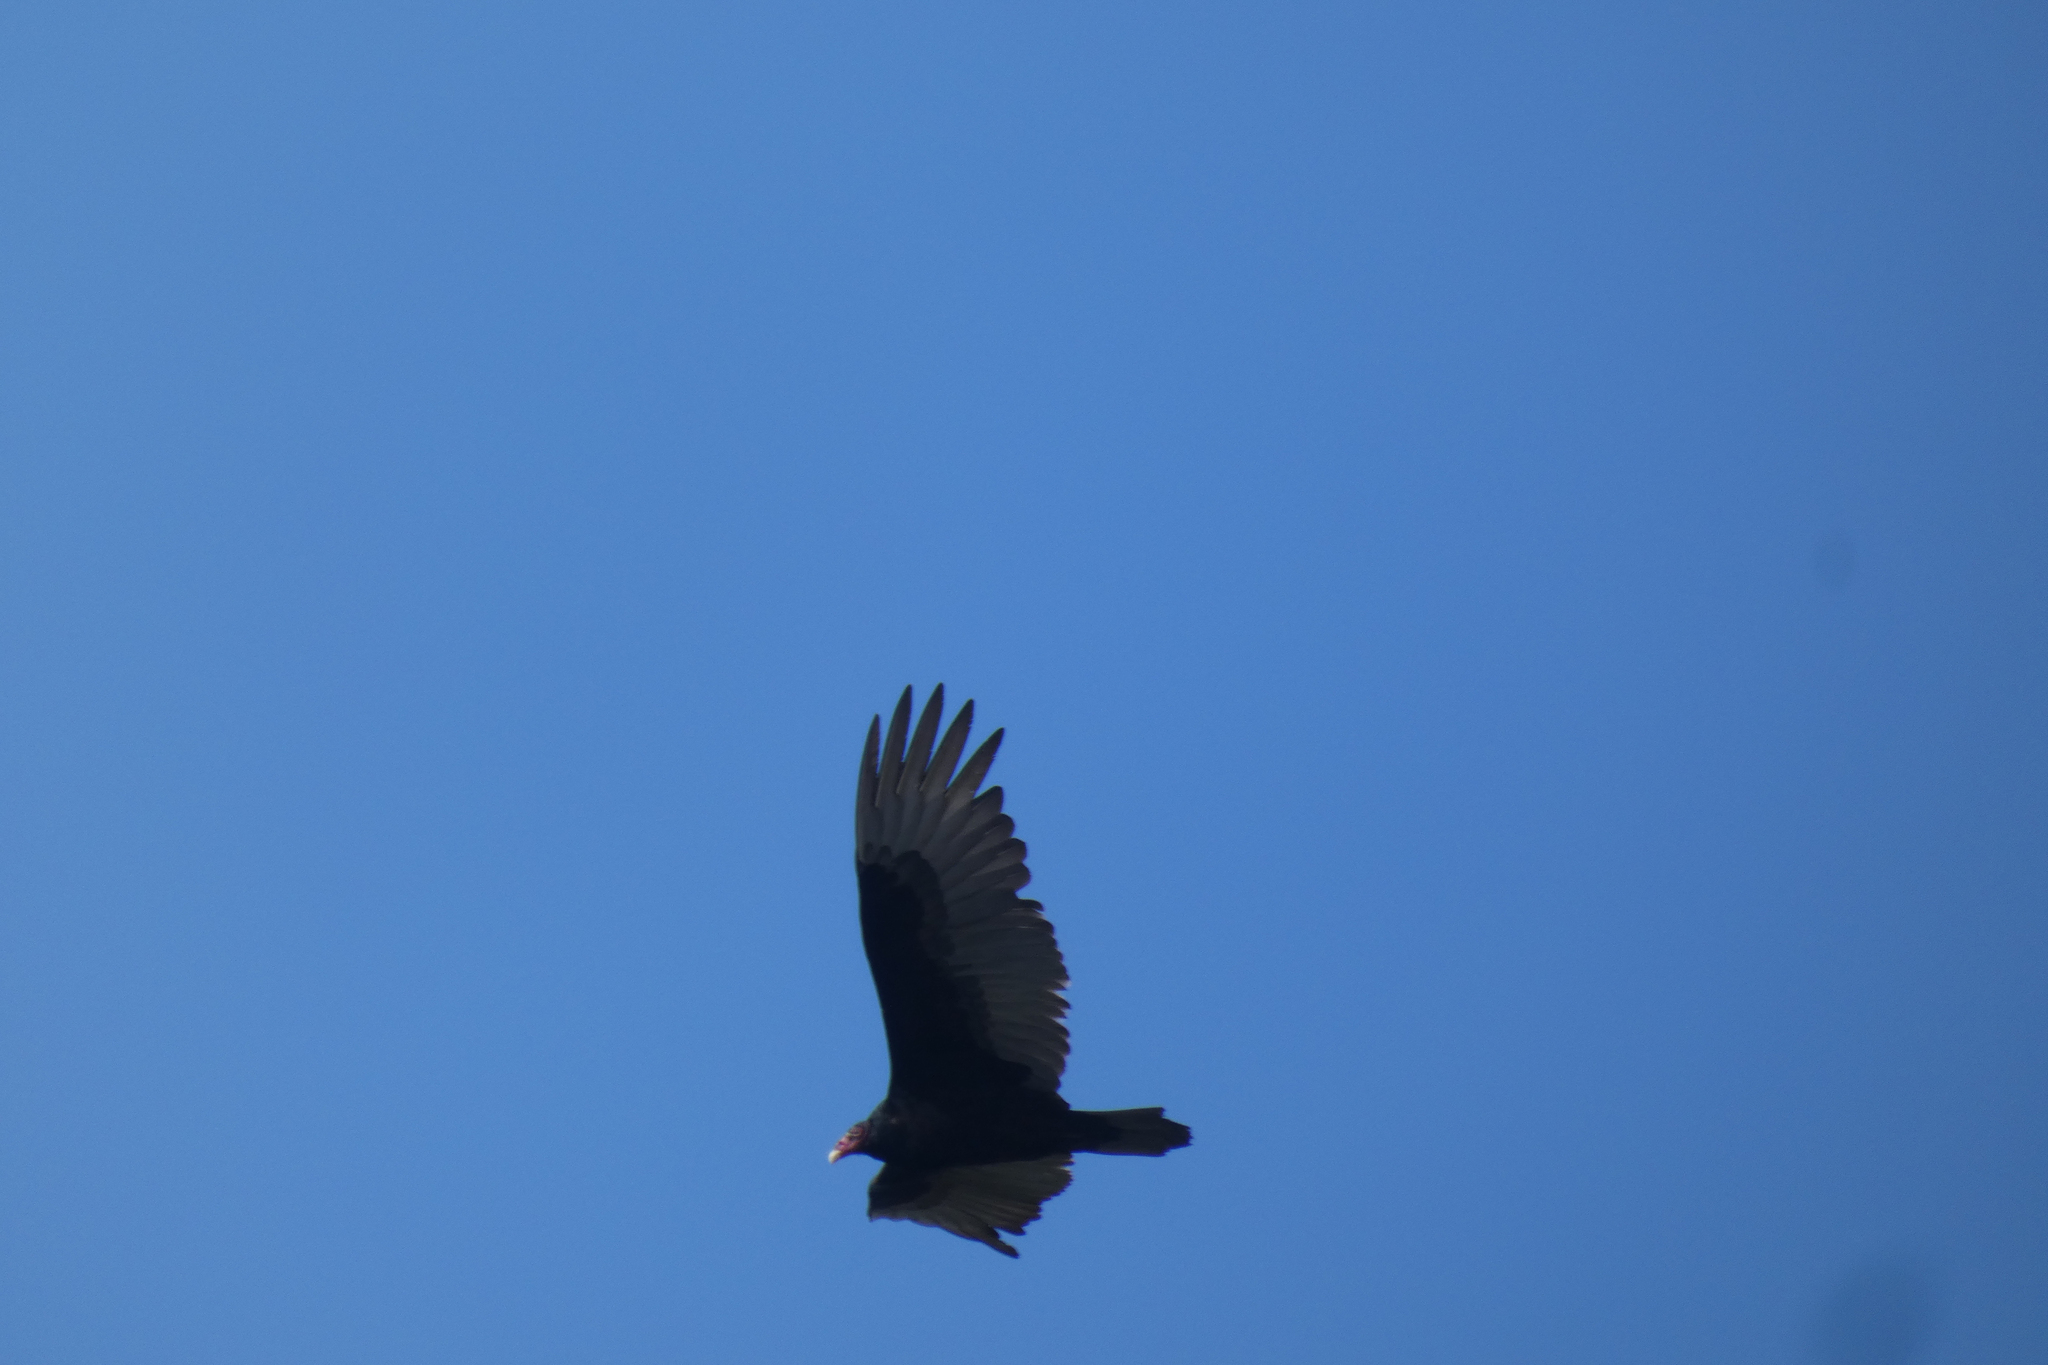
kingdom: Animalia
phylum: Chordata
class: Aves
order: Accipitriformes
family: Cathartidae
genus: Cathartes
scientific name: Cathartes aura
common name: Turkey vulture
